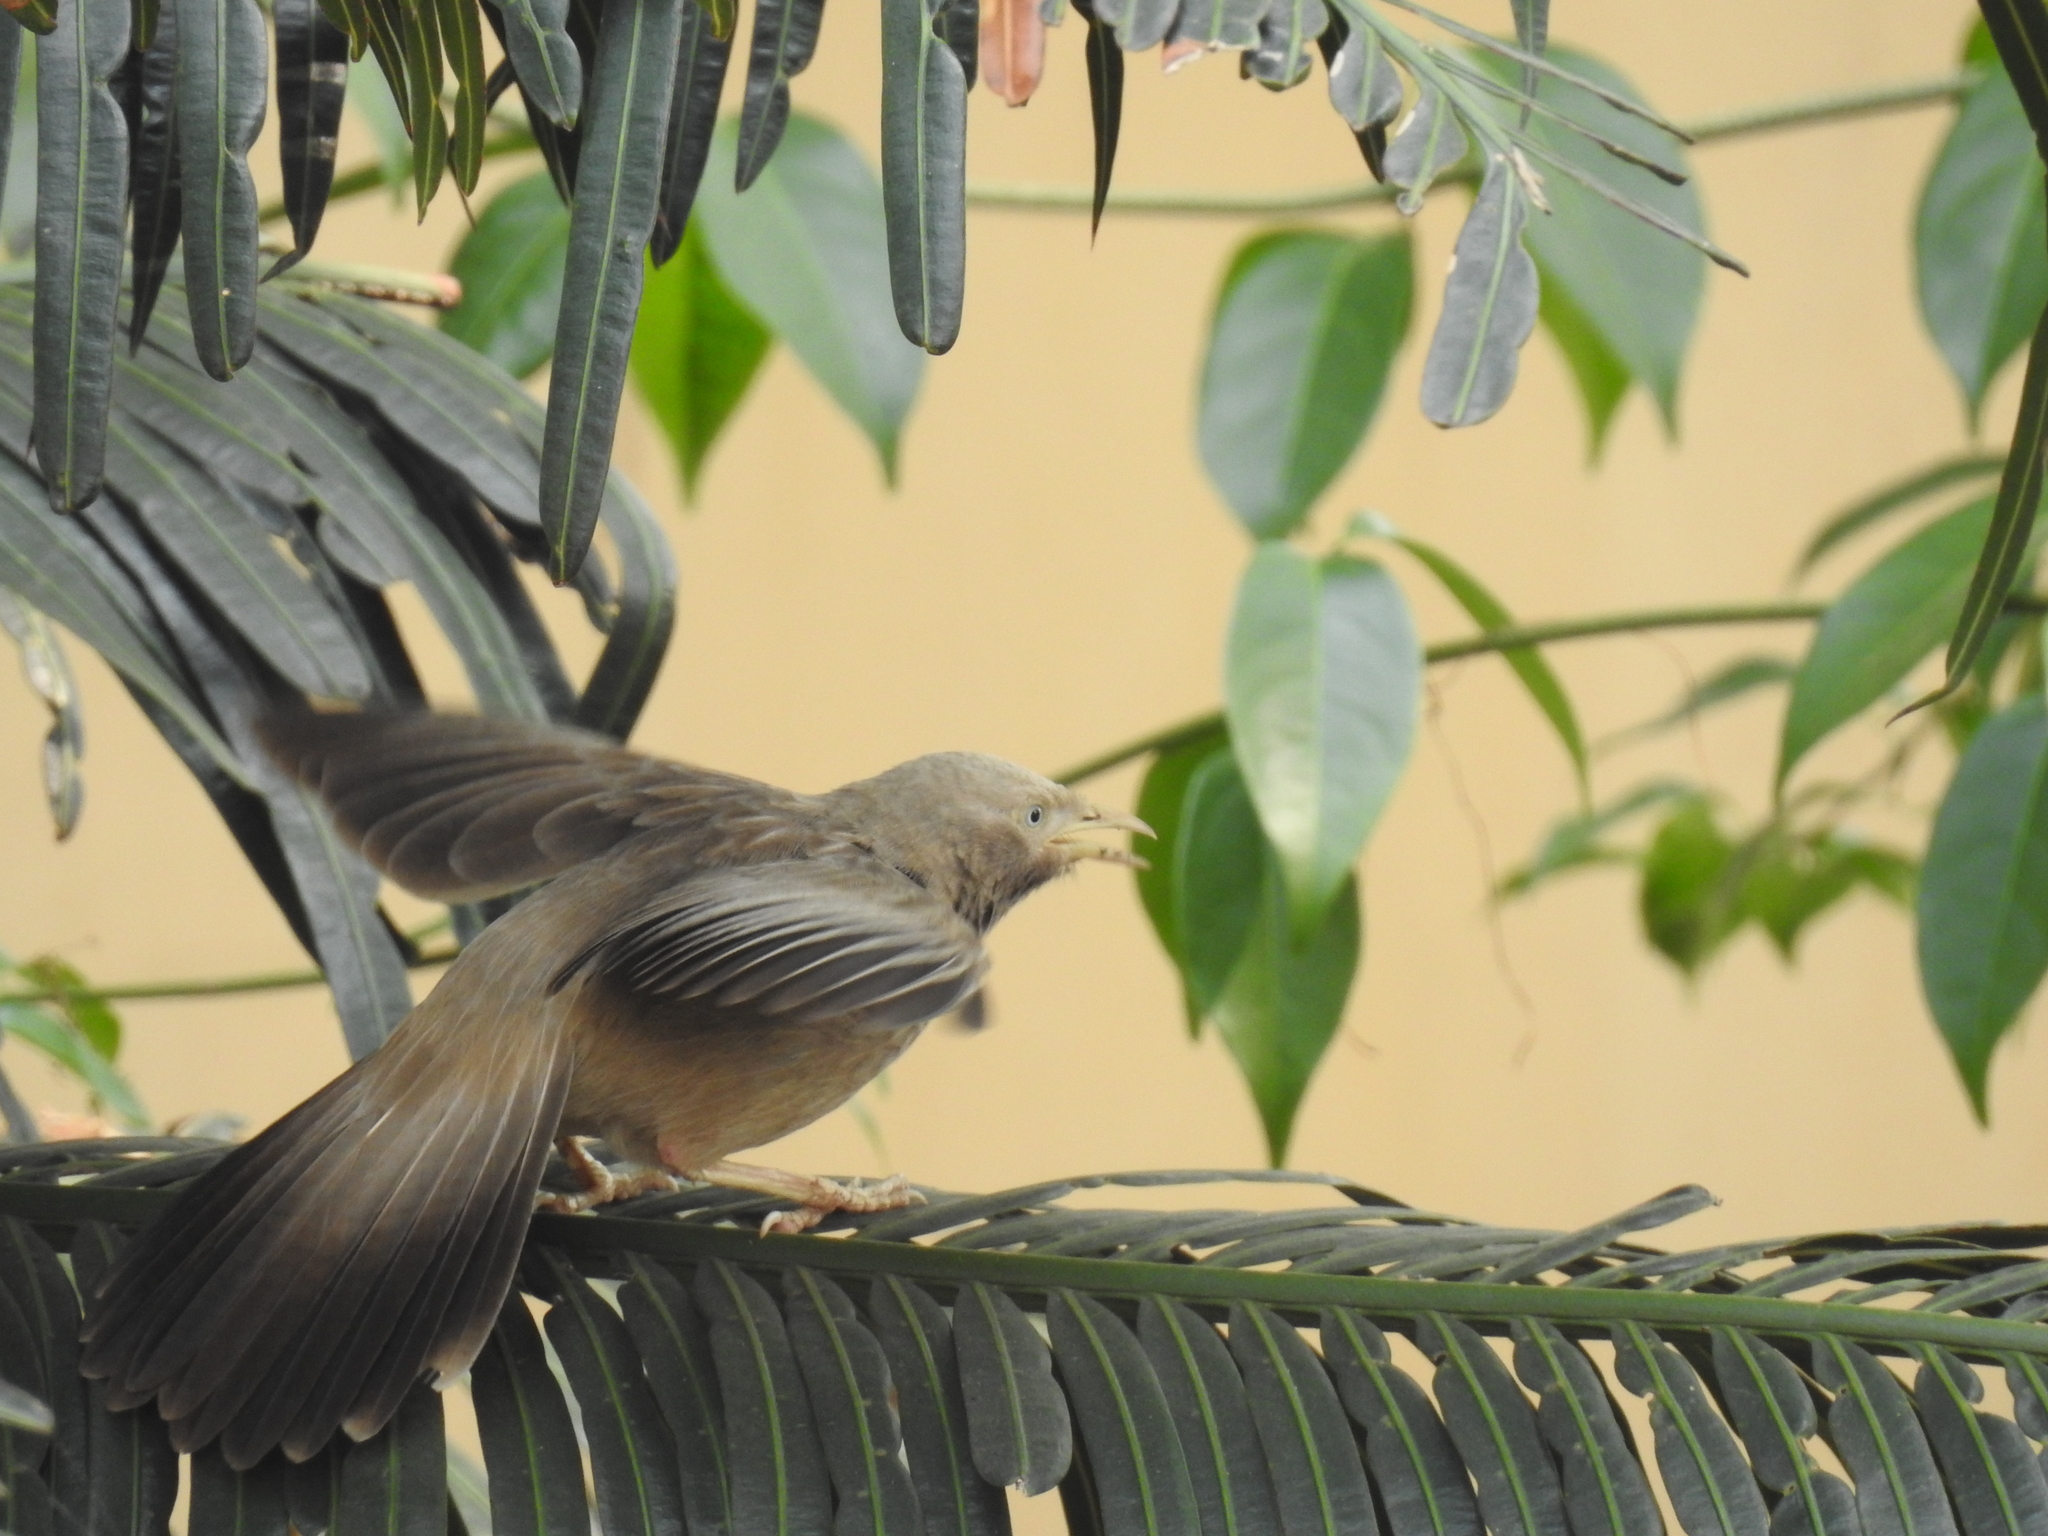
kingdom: Animalia
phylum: Chordata
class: Aves
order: Passeriformes
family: Leiothrichidae
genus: Turdoides
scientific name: Turdoides affinis
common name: Yellow-billed babbler
